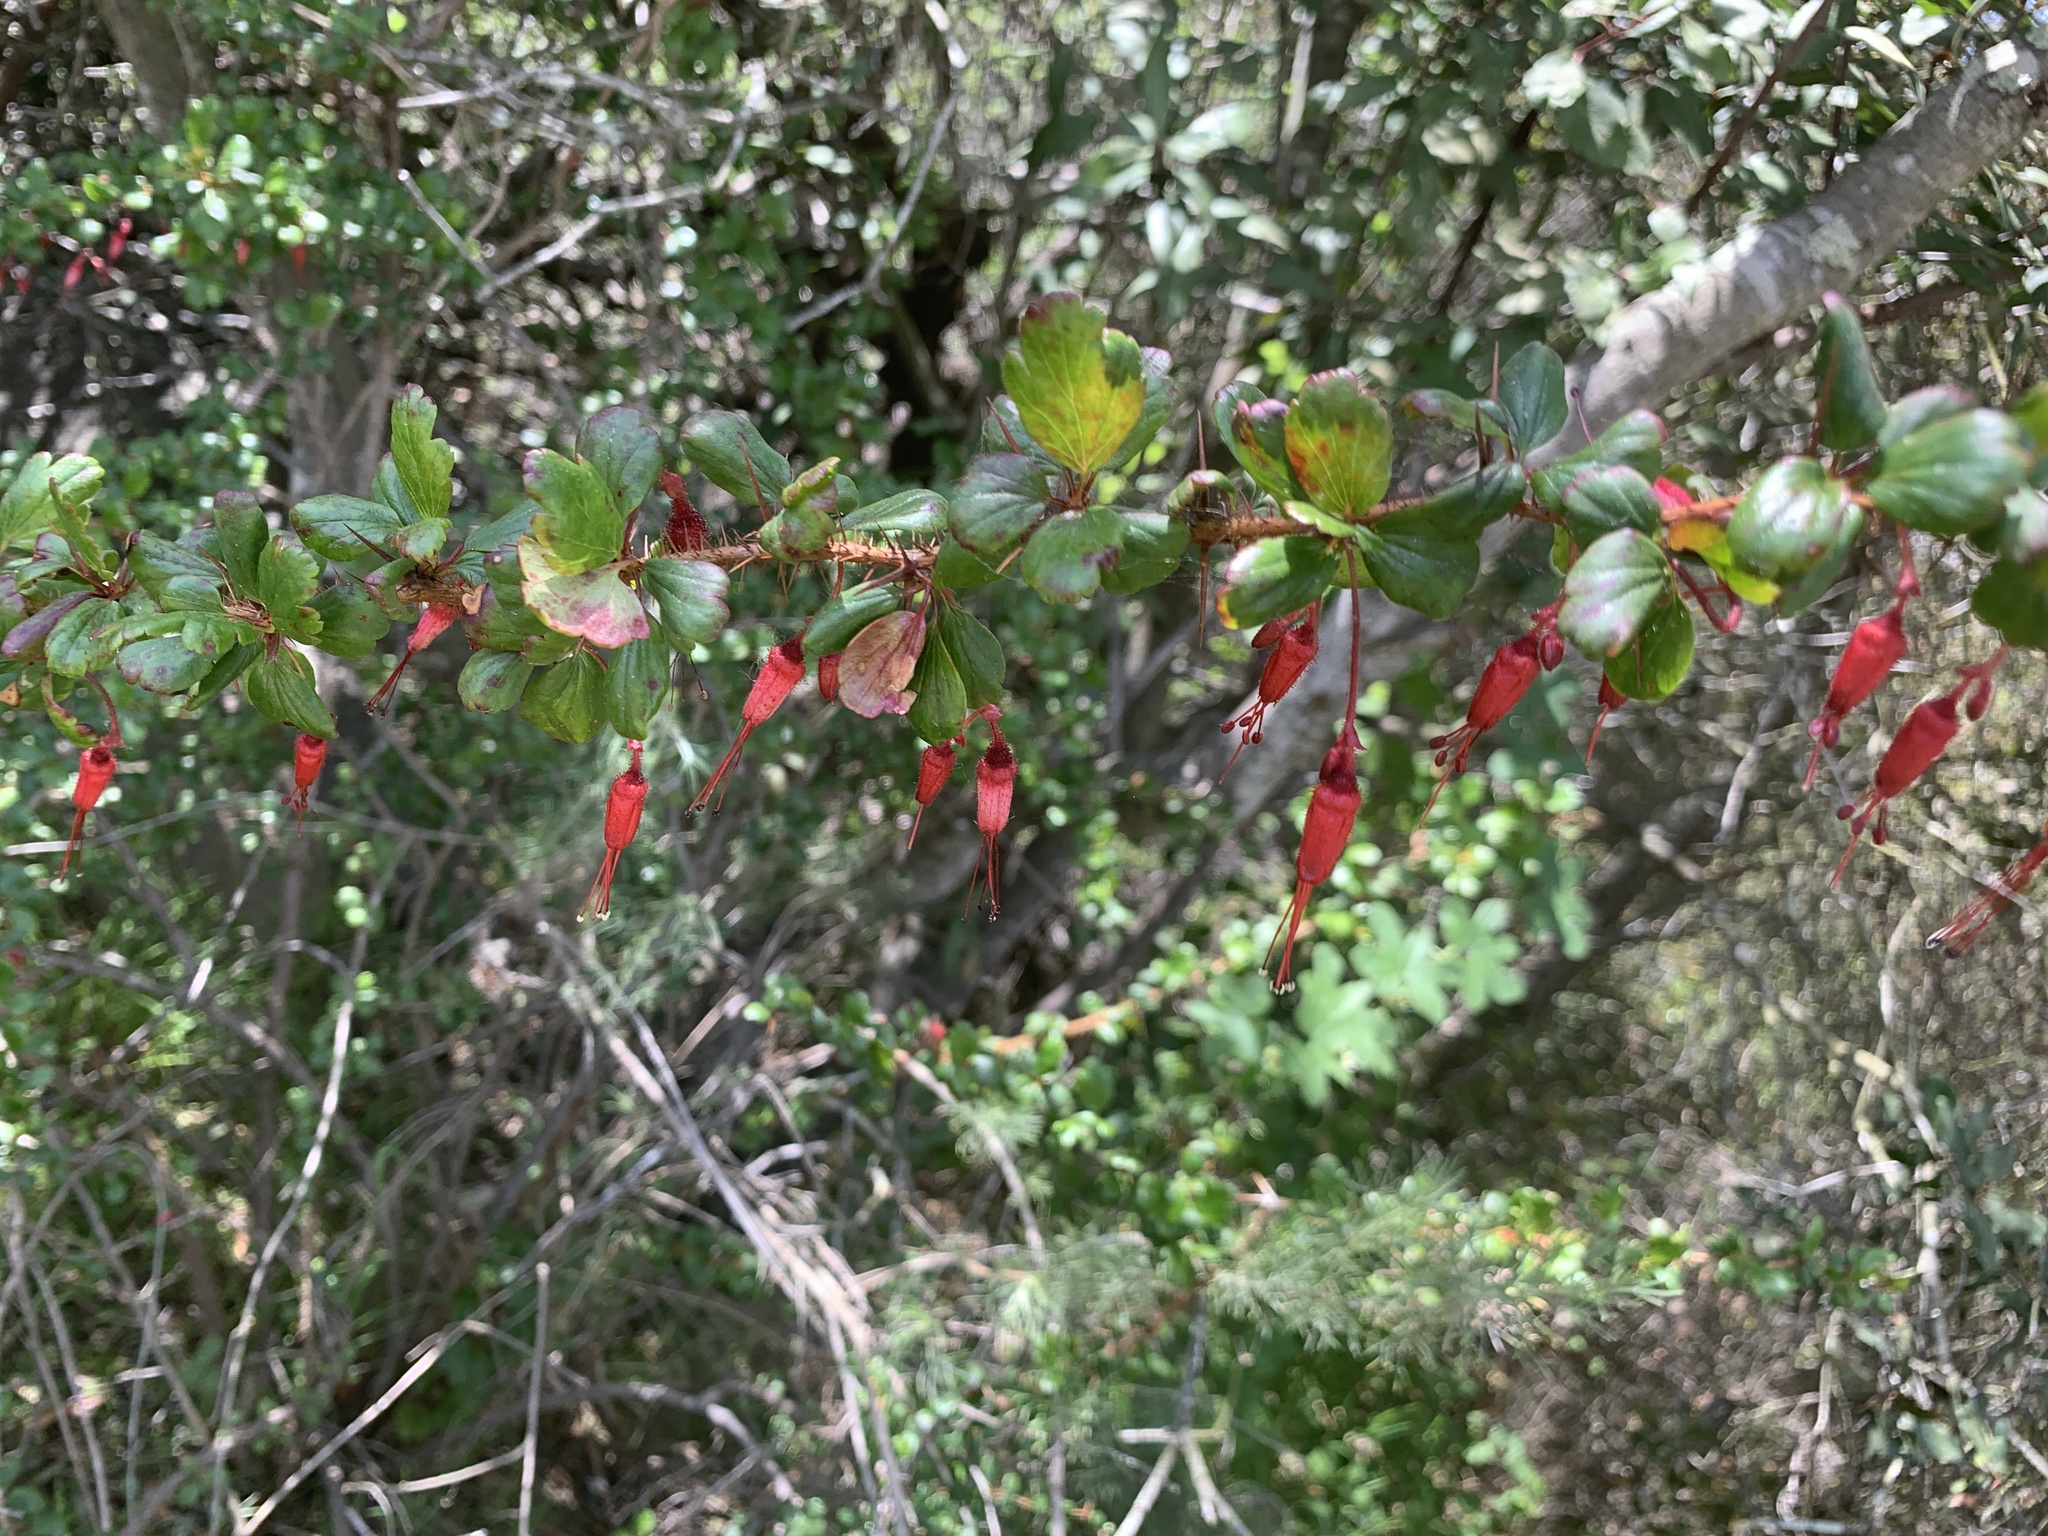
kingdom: Plantae
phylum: Tracheophyta
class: Magnoliopsida
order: Saxifragales
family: Grossulariaceae
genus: Ribes
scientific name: Ribes speciosum
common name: Fuchsia-flower gooseberry
